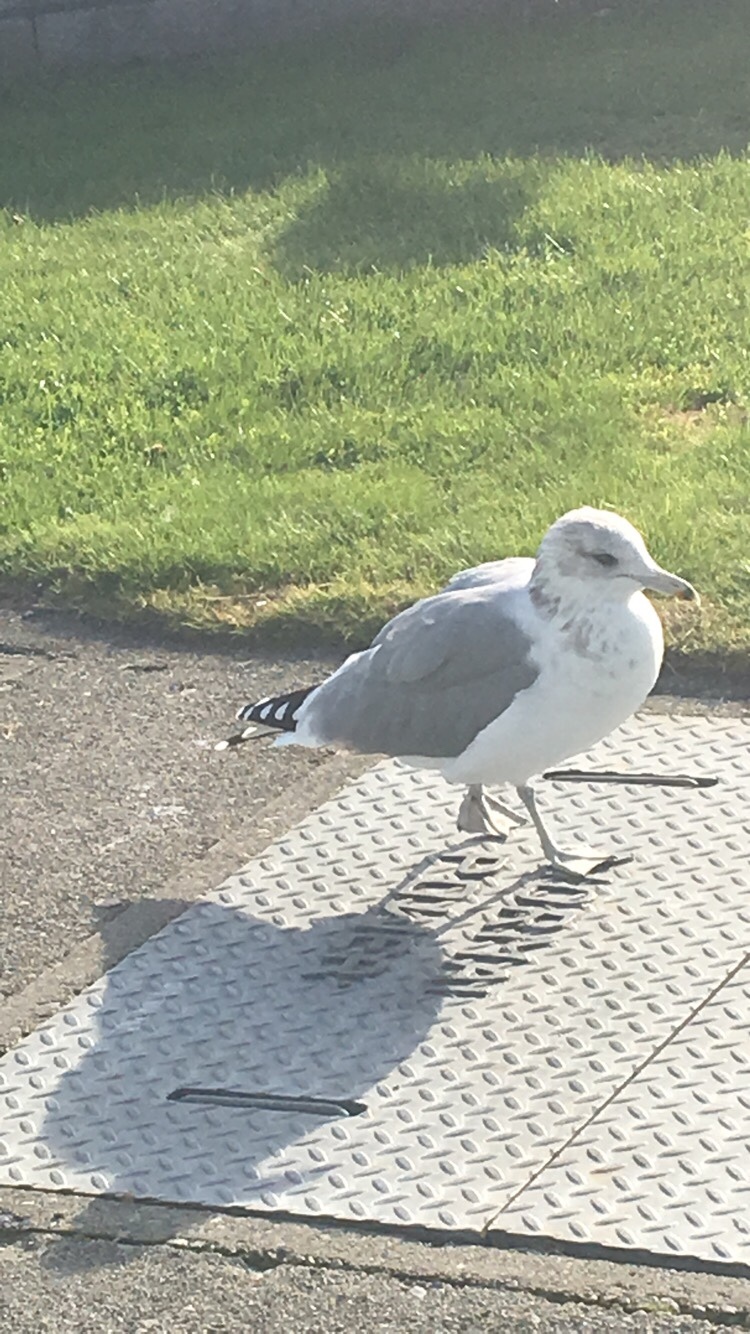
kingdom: Animalia
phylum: Chordata
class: Aves
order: Charadriiformes
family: Laridae
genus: Larus
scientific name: Larus californicus
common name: California gull
